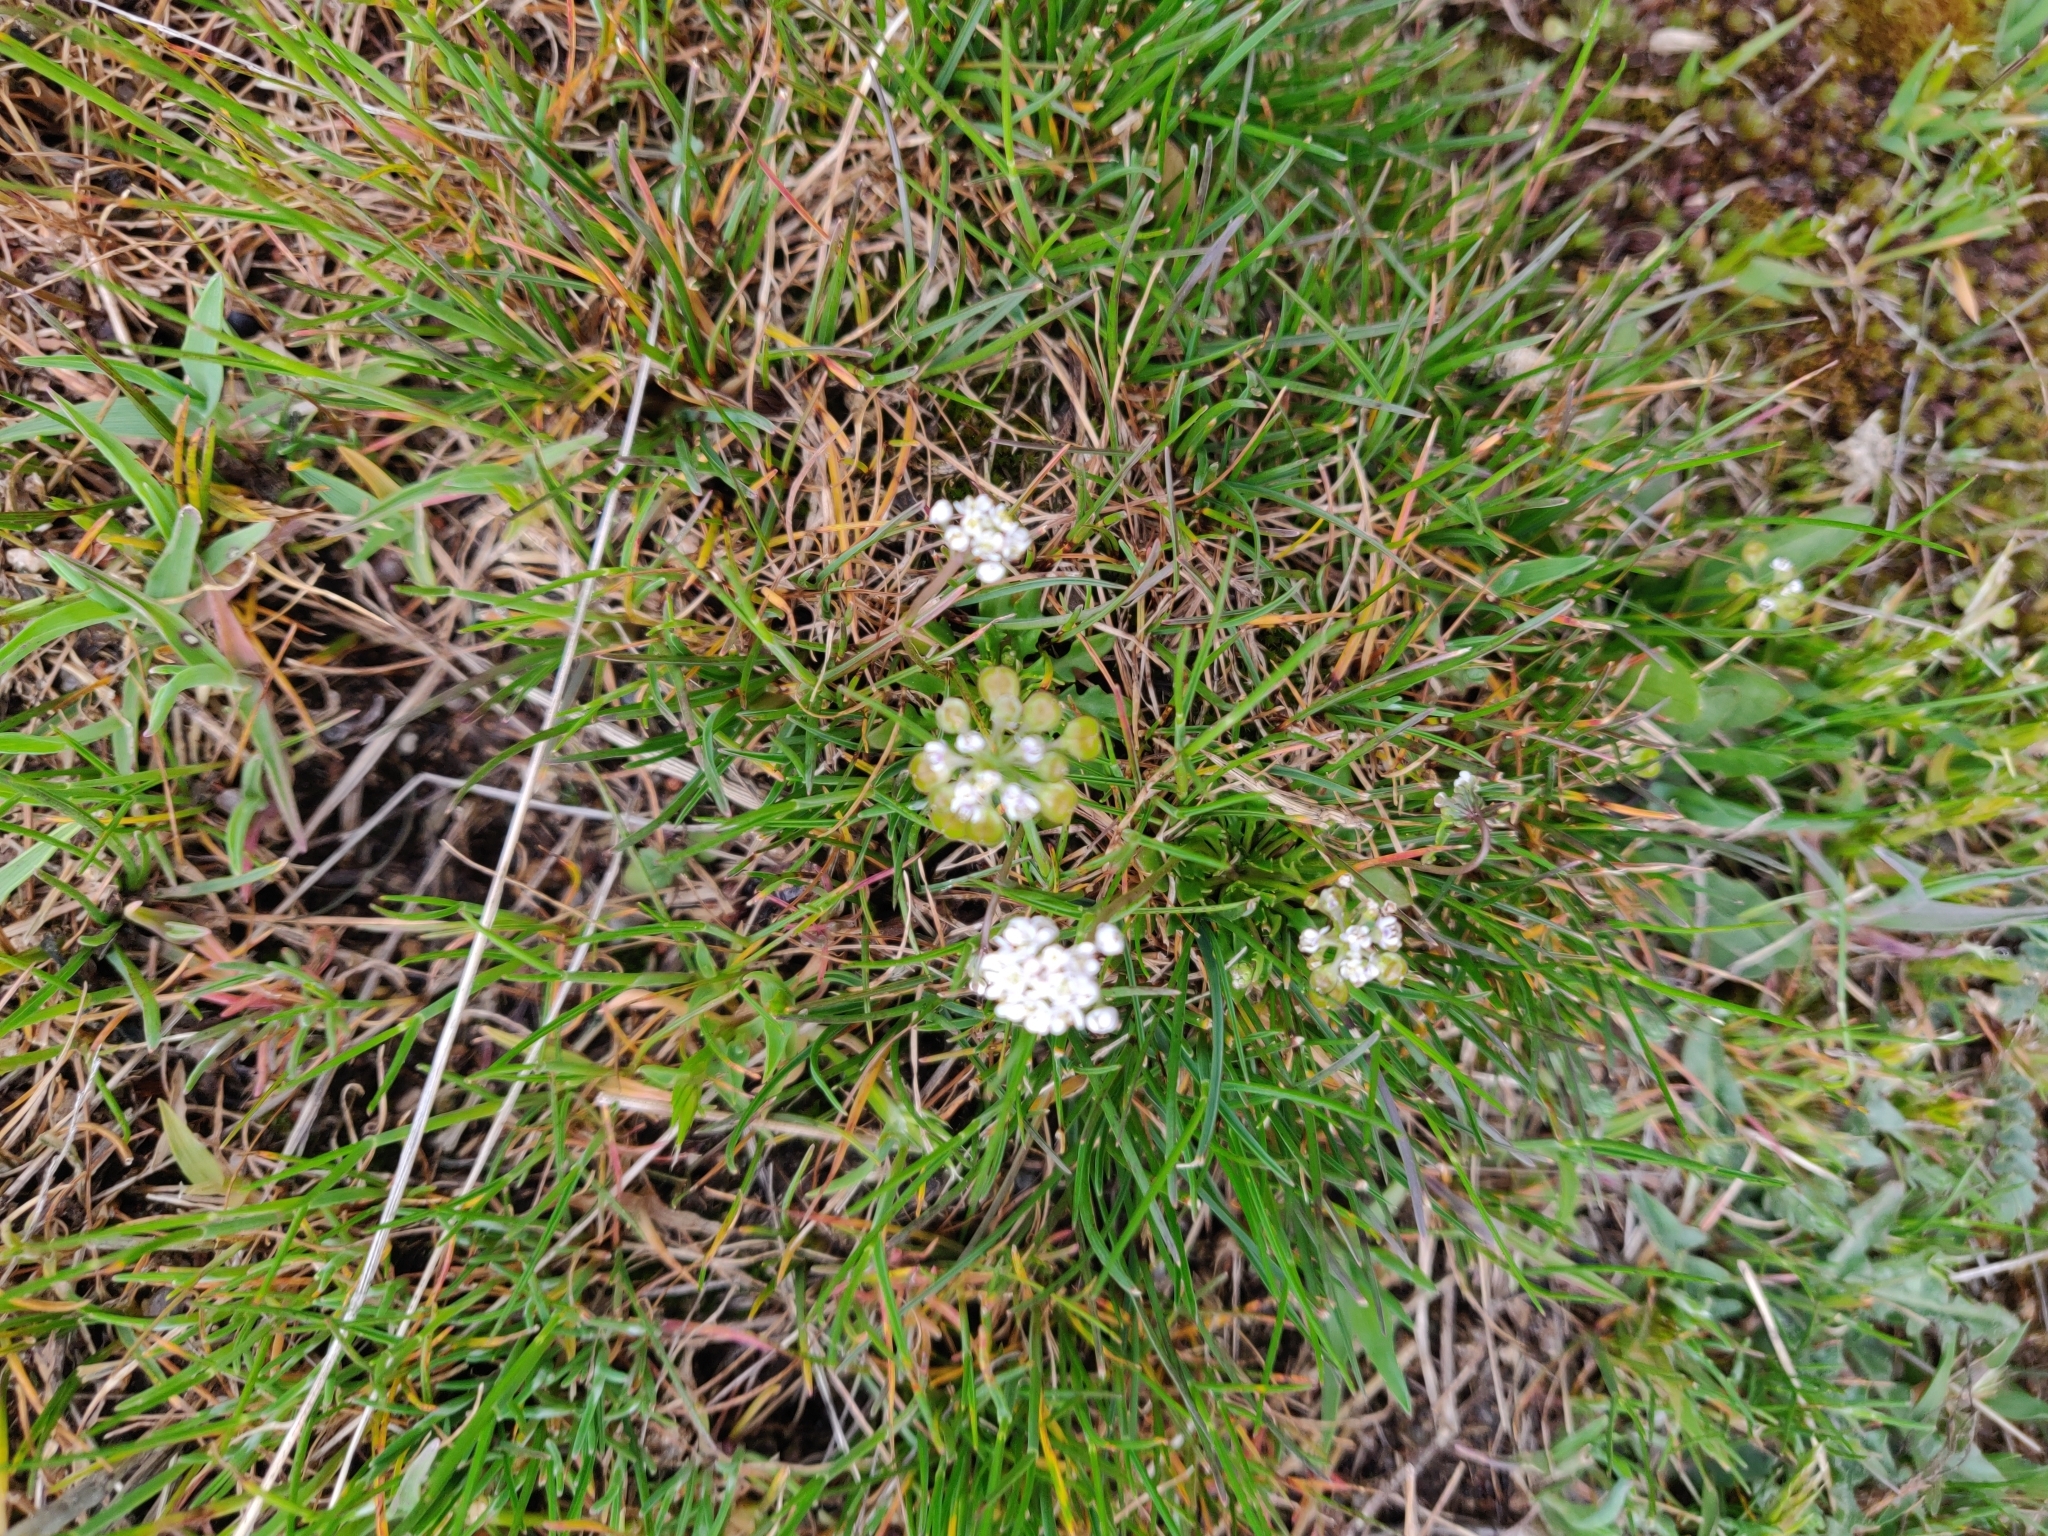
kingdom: Plantae
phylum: Tracheophyta
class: Magnoliopsida
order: Brassicales
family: Brassicaceae
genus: Teesdalia
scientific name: Teesdalia coronopifolia
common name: Lesser shepherdscress
